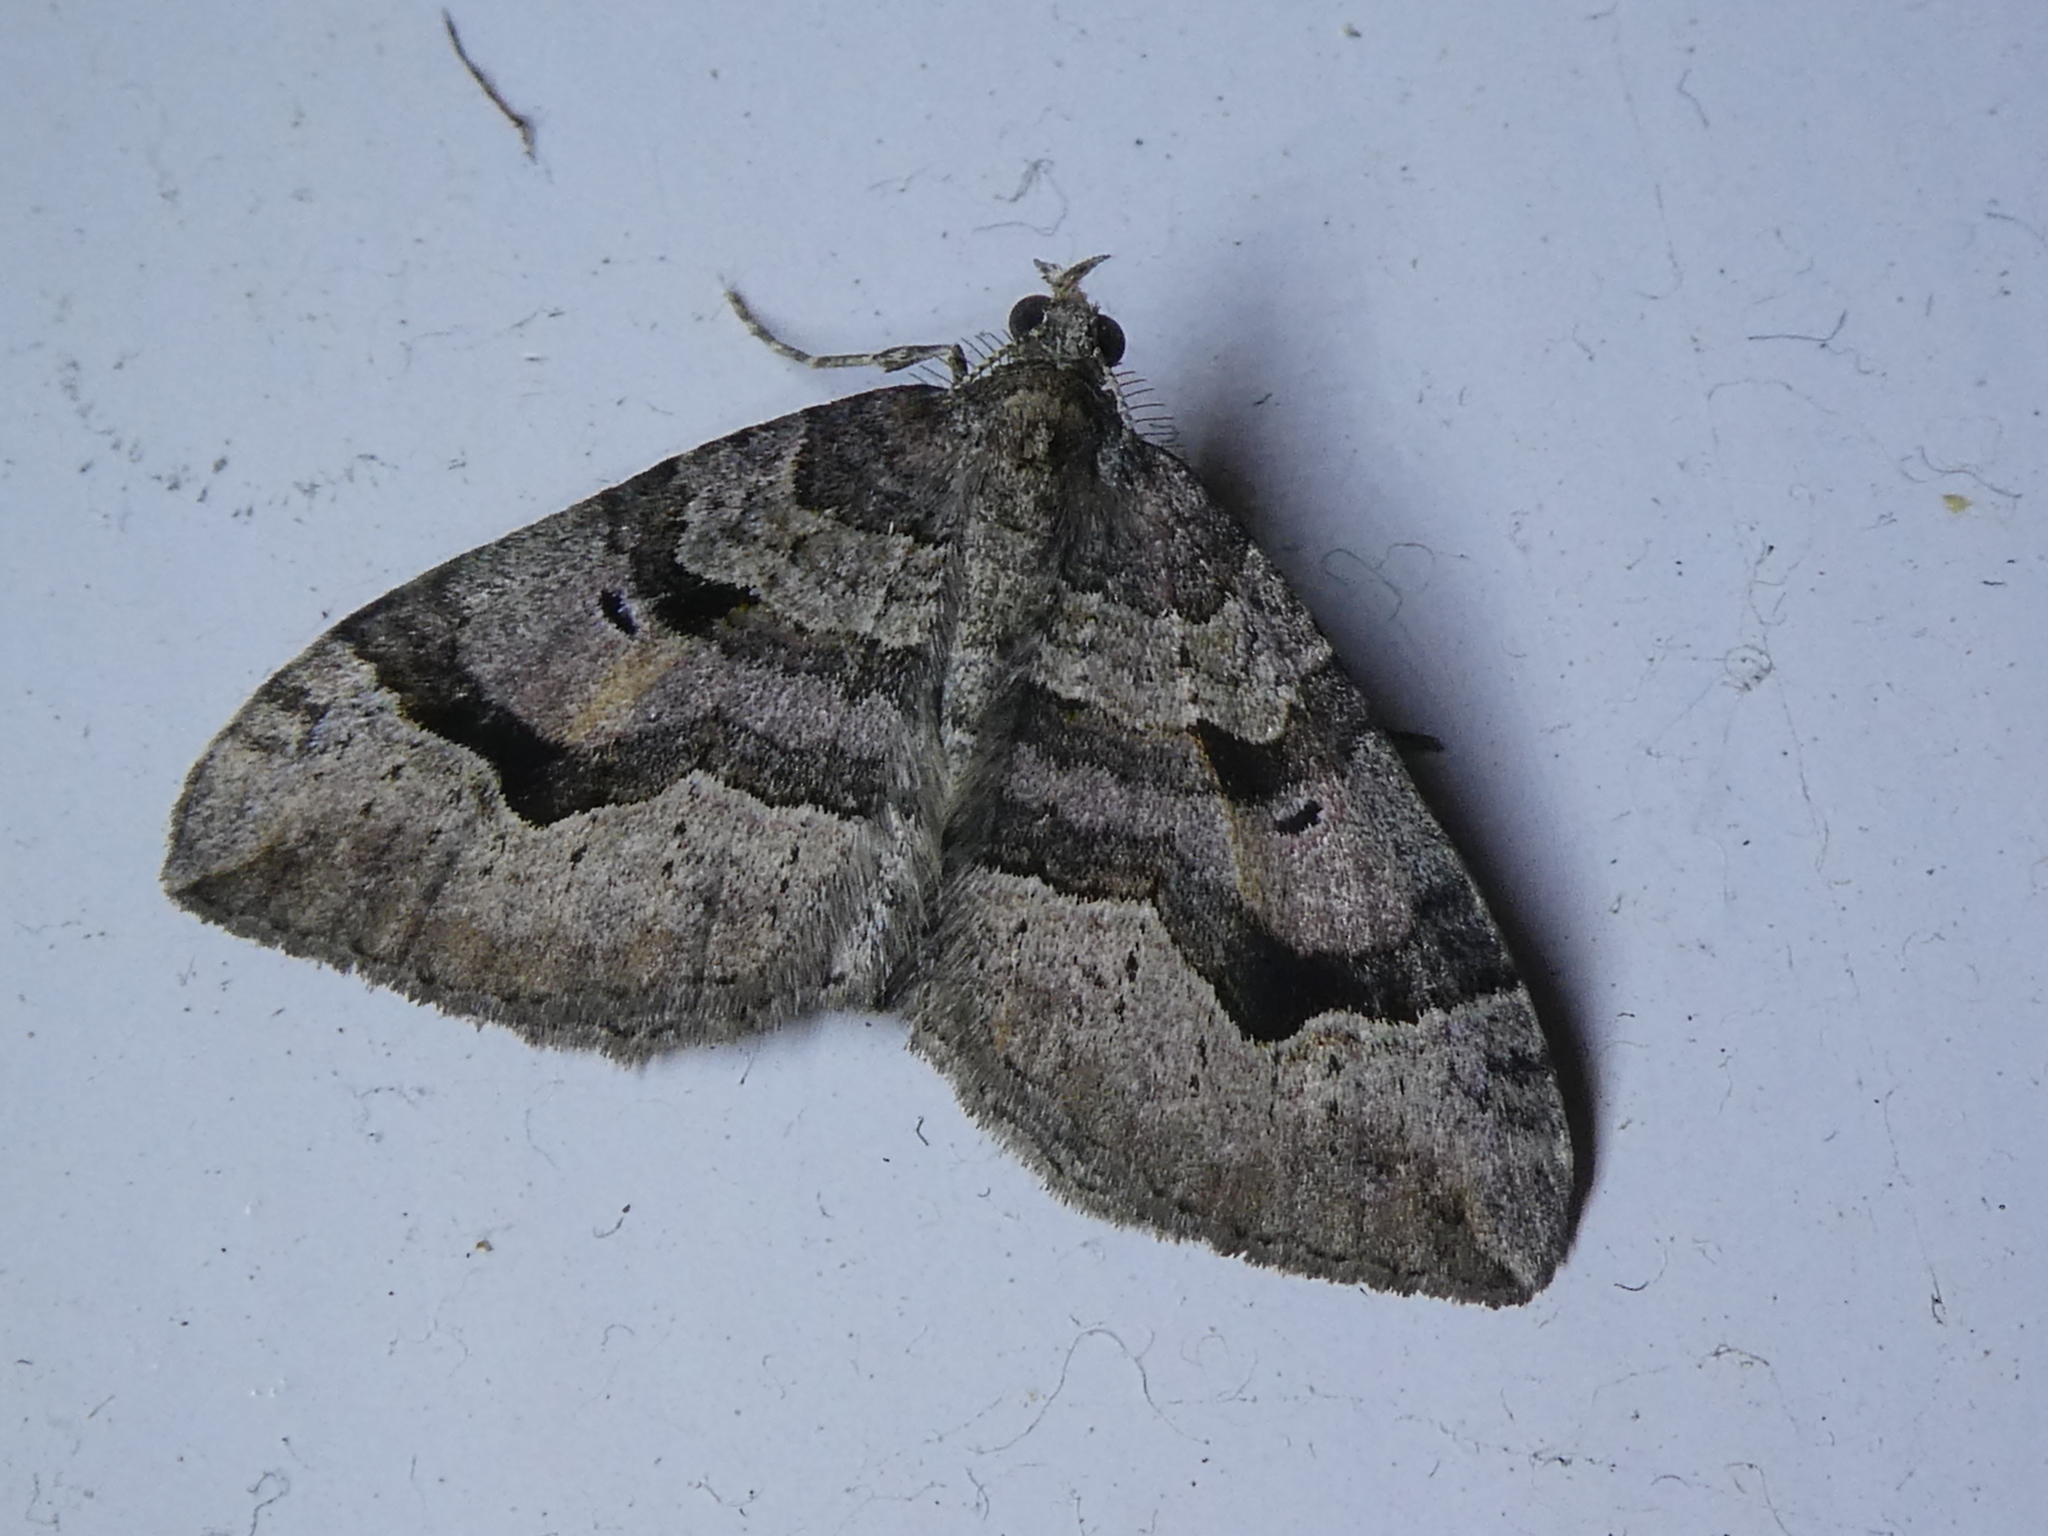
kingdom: Animalia
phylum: Arthropoda
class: Insecta
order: Lepidoptera
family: Geometridae
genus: Epyaxa
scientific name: Epyaxa rosearia
